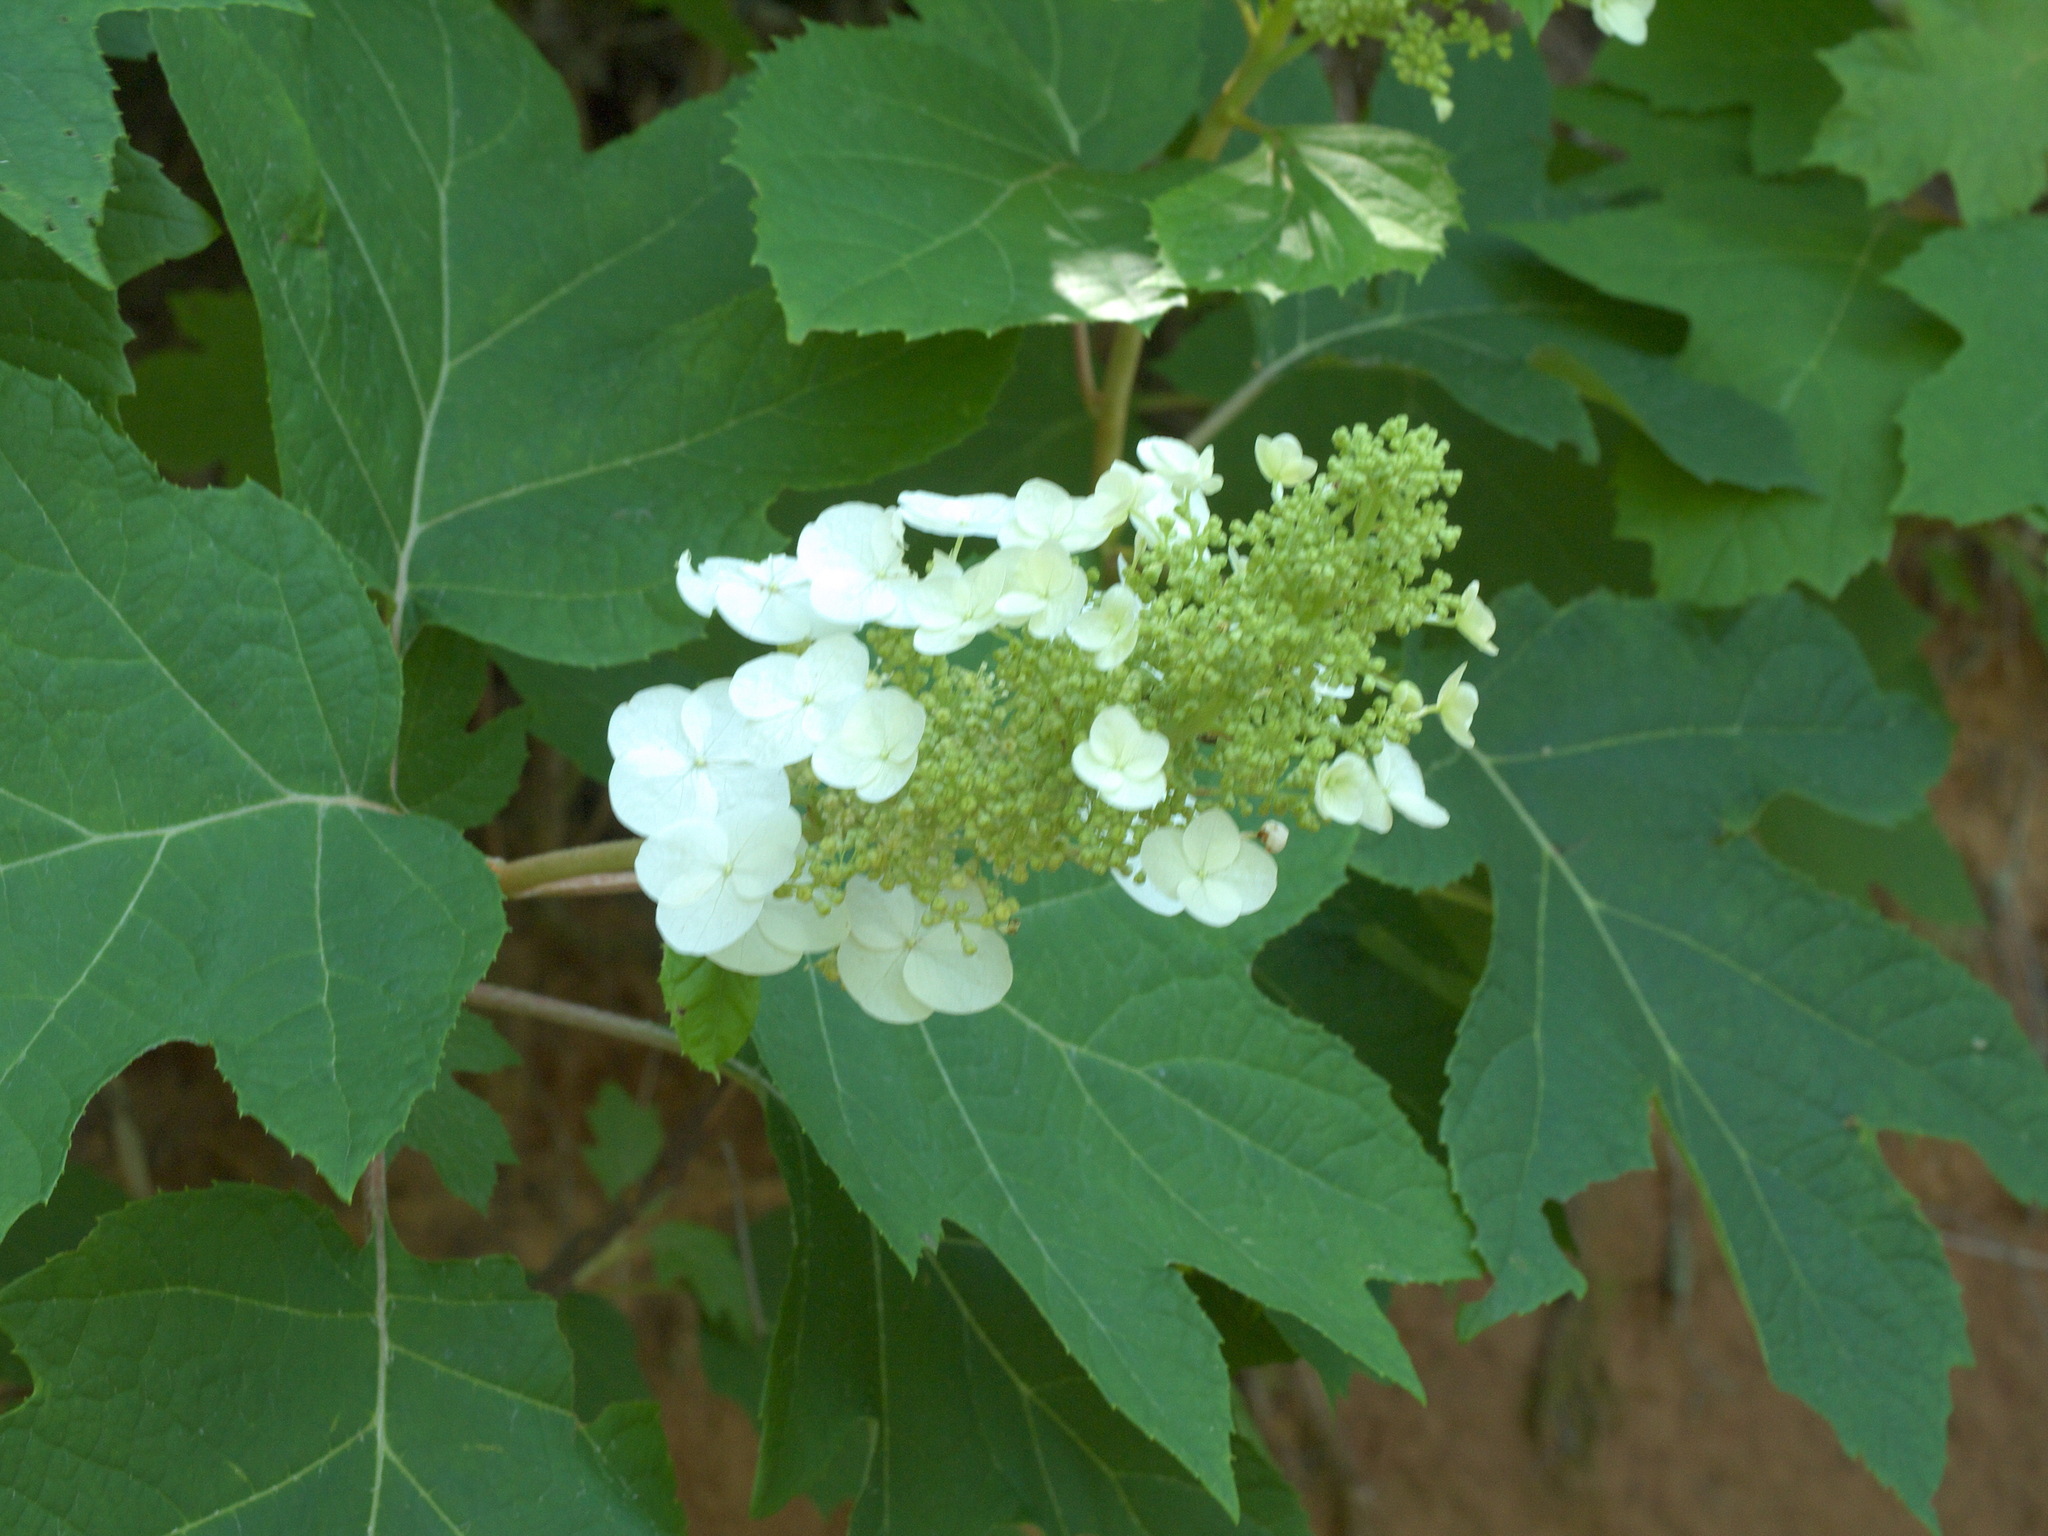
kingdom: Plantae
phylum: Tracheophyta
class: Magnoliopsida
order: Cornales
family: Hydrangeaceae
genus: Hydrangea
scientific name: Hydrangea quercifolia
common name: Oak-leaf hydrangea
